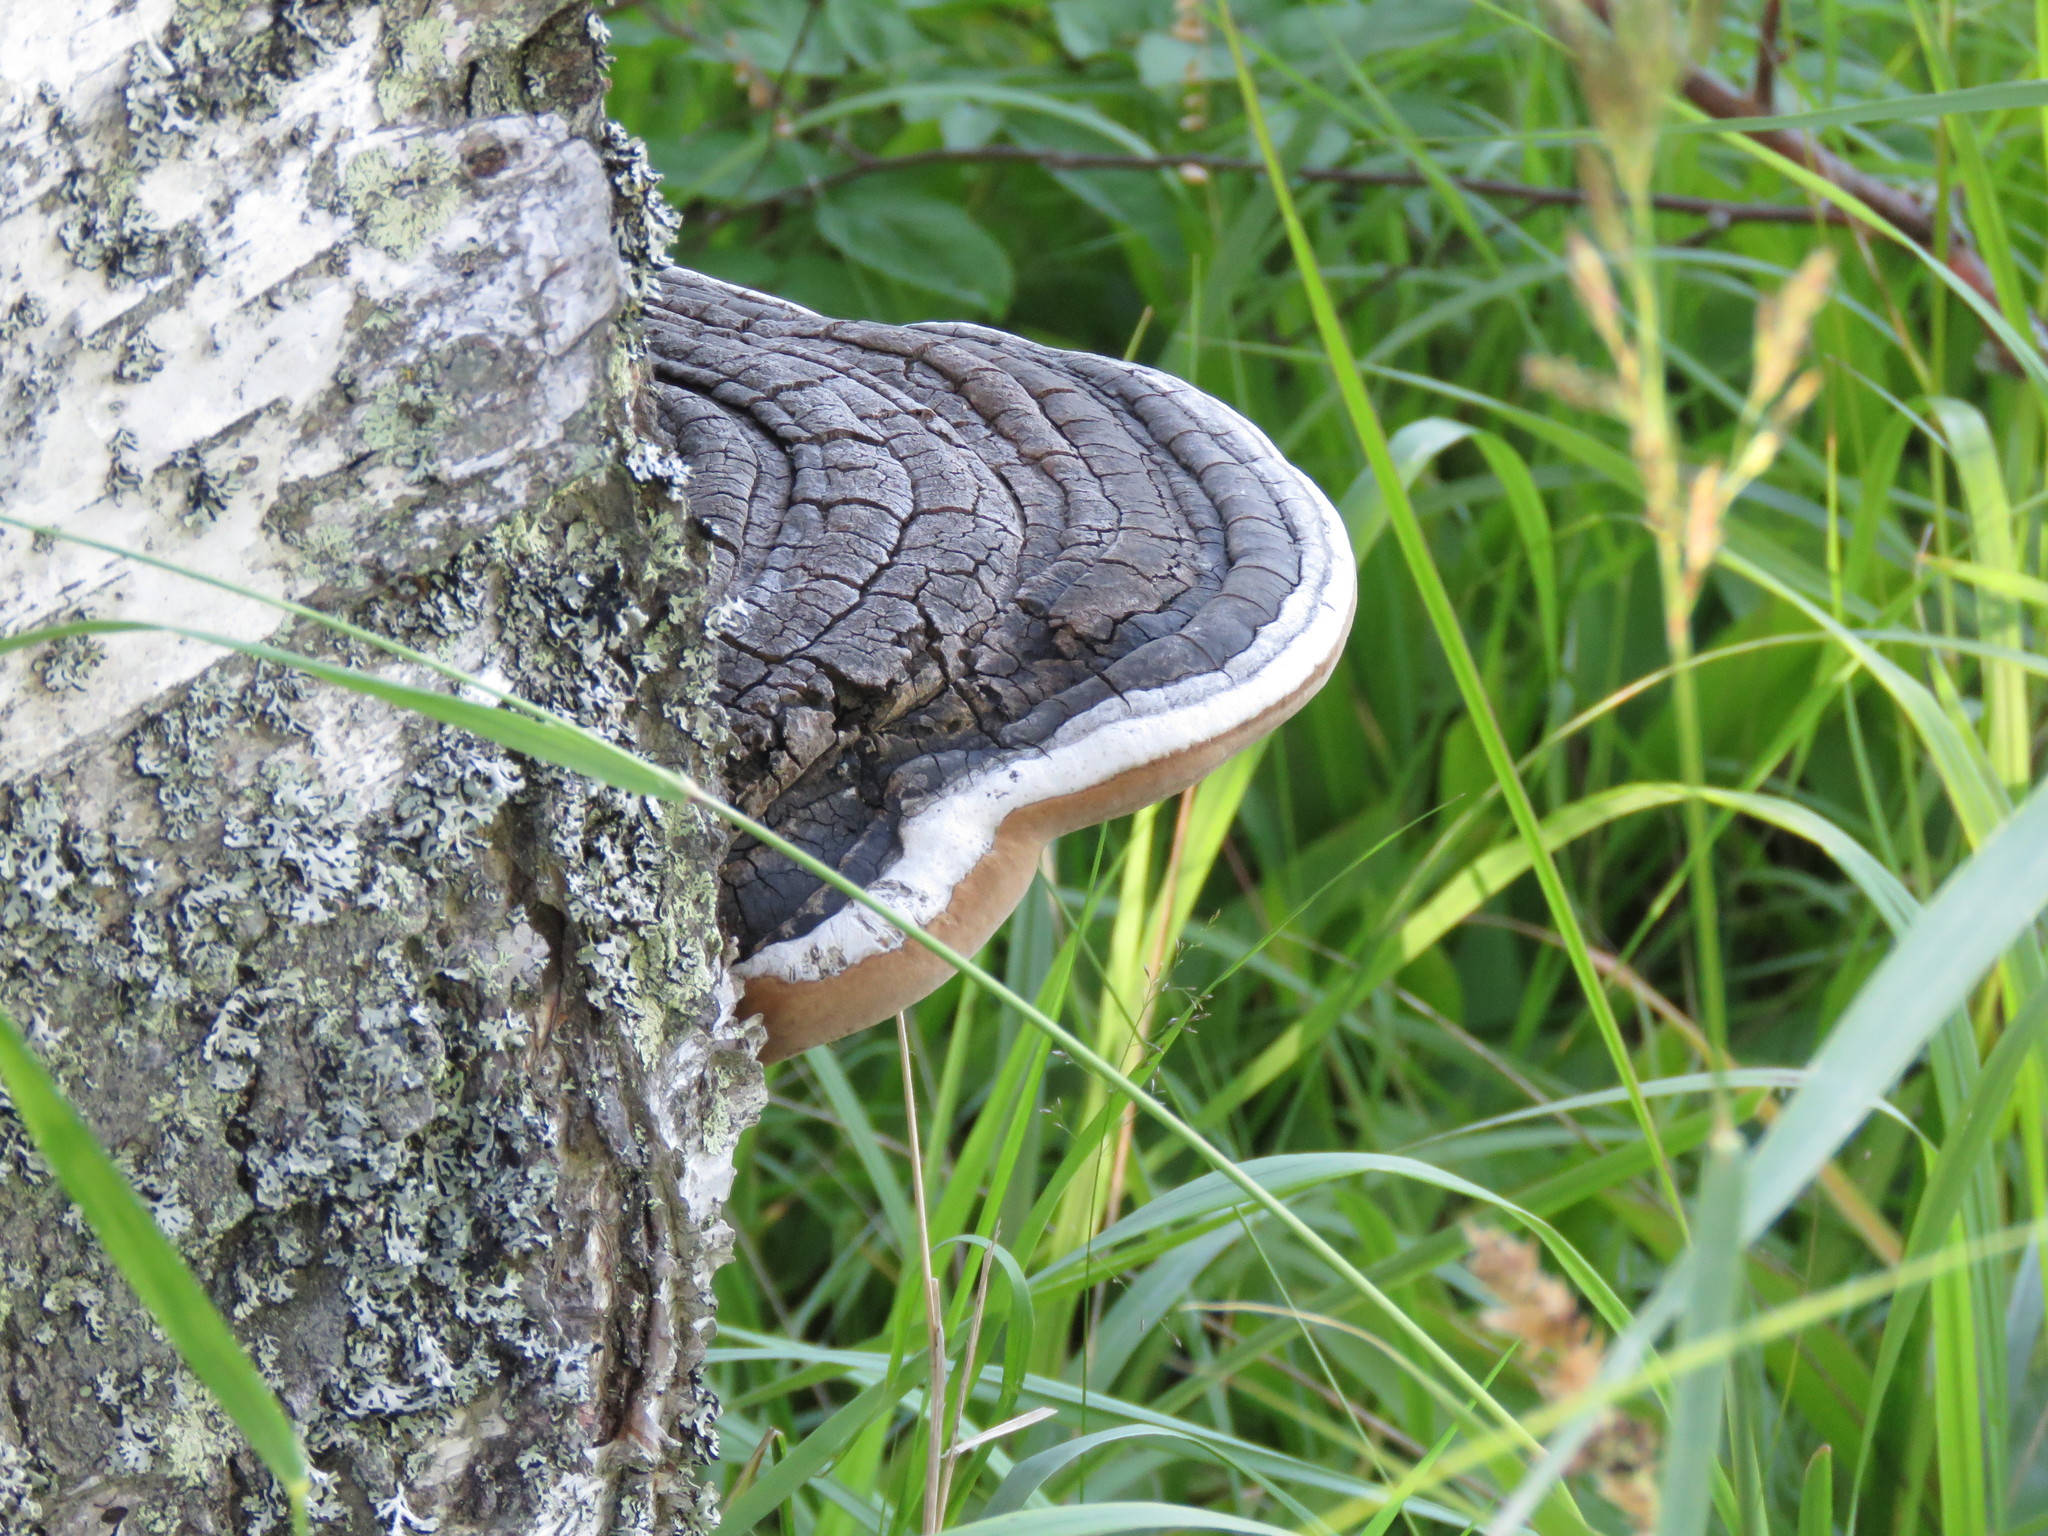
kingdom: Fungi
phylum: Basidiomycota
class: Agaricomycetes
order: Hymenochaetales
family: Hymenochaetaceae
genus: Phellinus
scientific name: Phellinus cinereus
